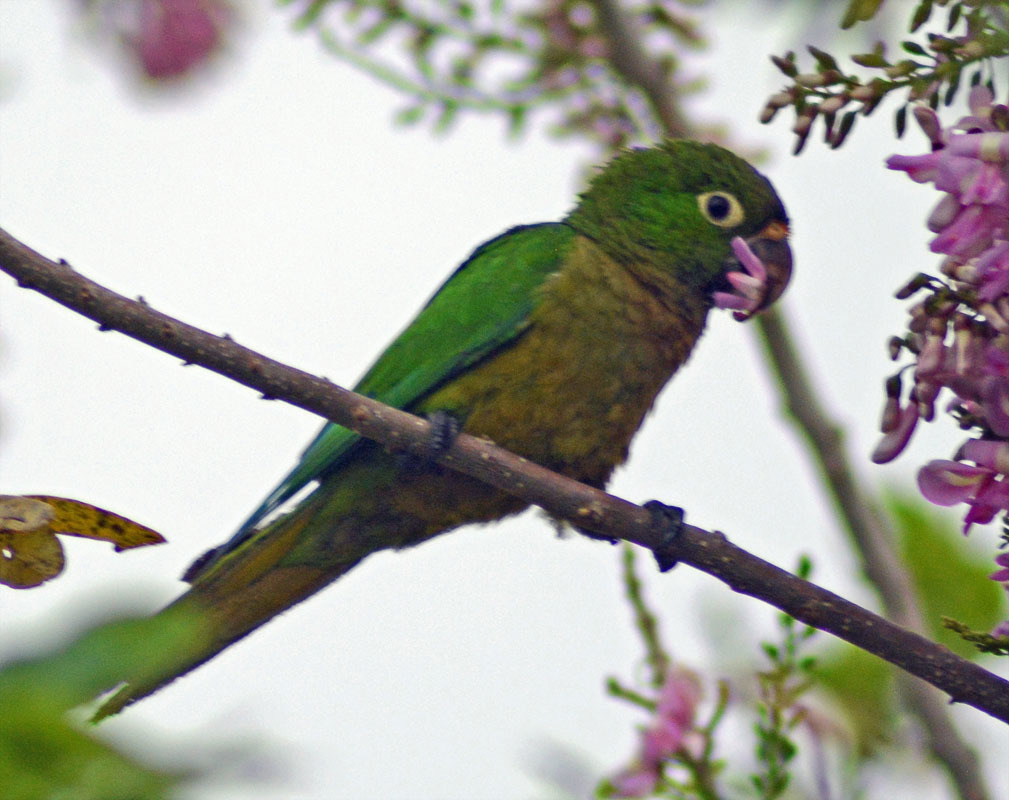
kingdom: Animalia
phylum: Chordata
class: Aves
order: Psittaciformes
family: Psittacidae
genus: Aratinga
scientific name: Aratinga nana
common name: Olive-throated parakeet
